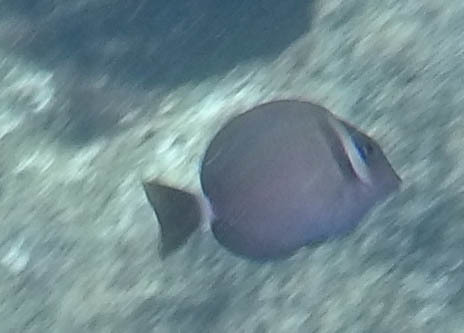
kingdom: Animalia
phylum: Chordata
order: Perciformes
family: Acanthuridae
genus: Acanthurus
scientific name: Acanthurus leucopareius
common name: Head-band surgeonfish
